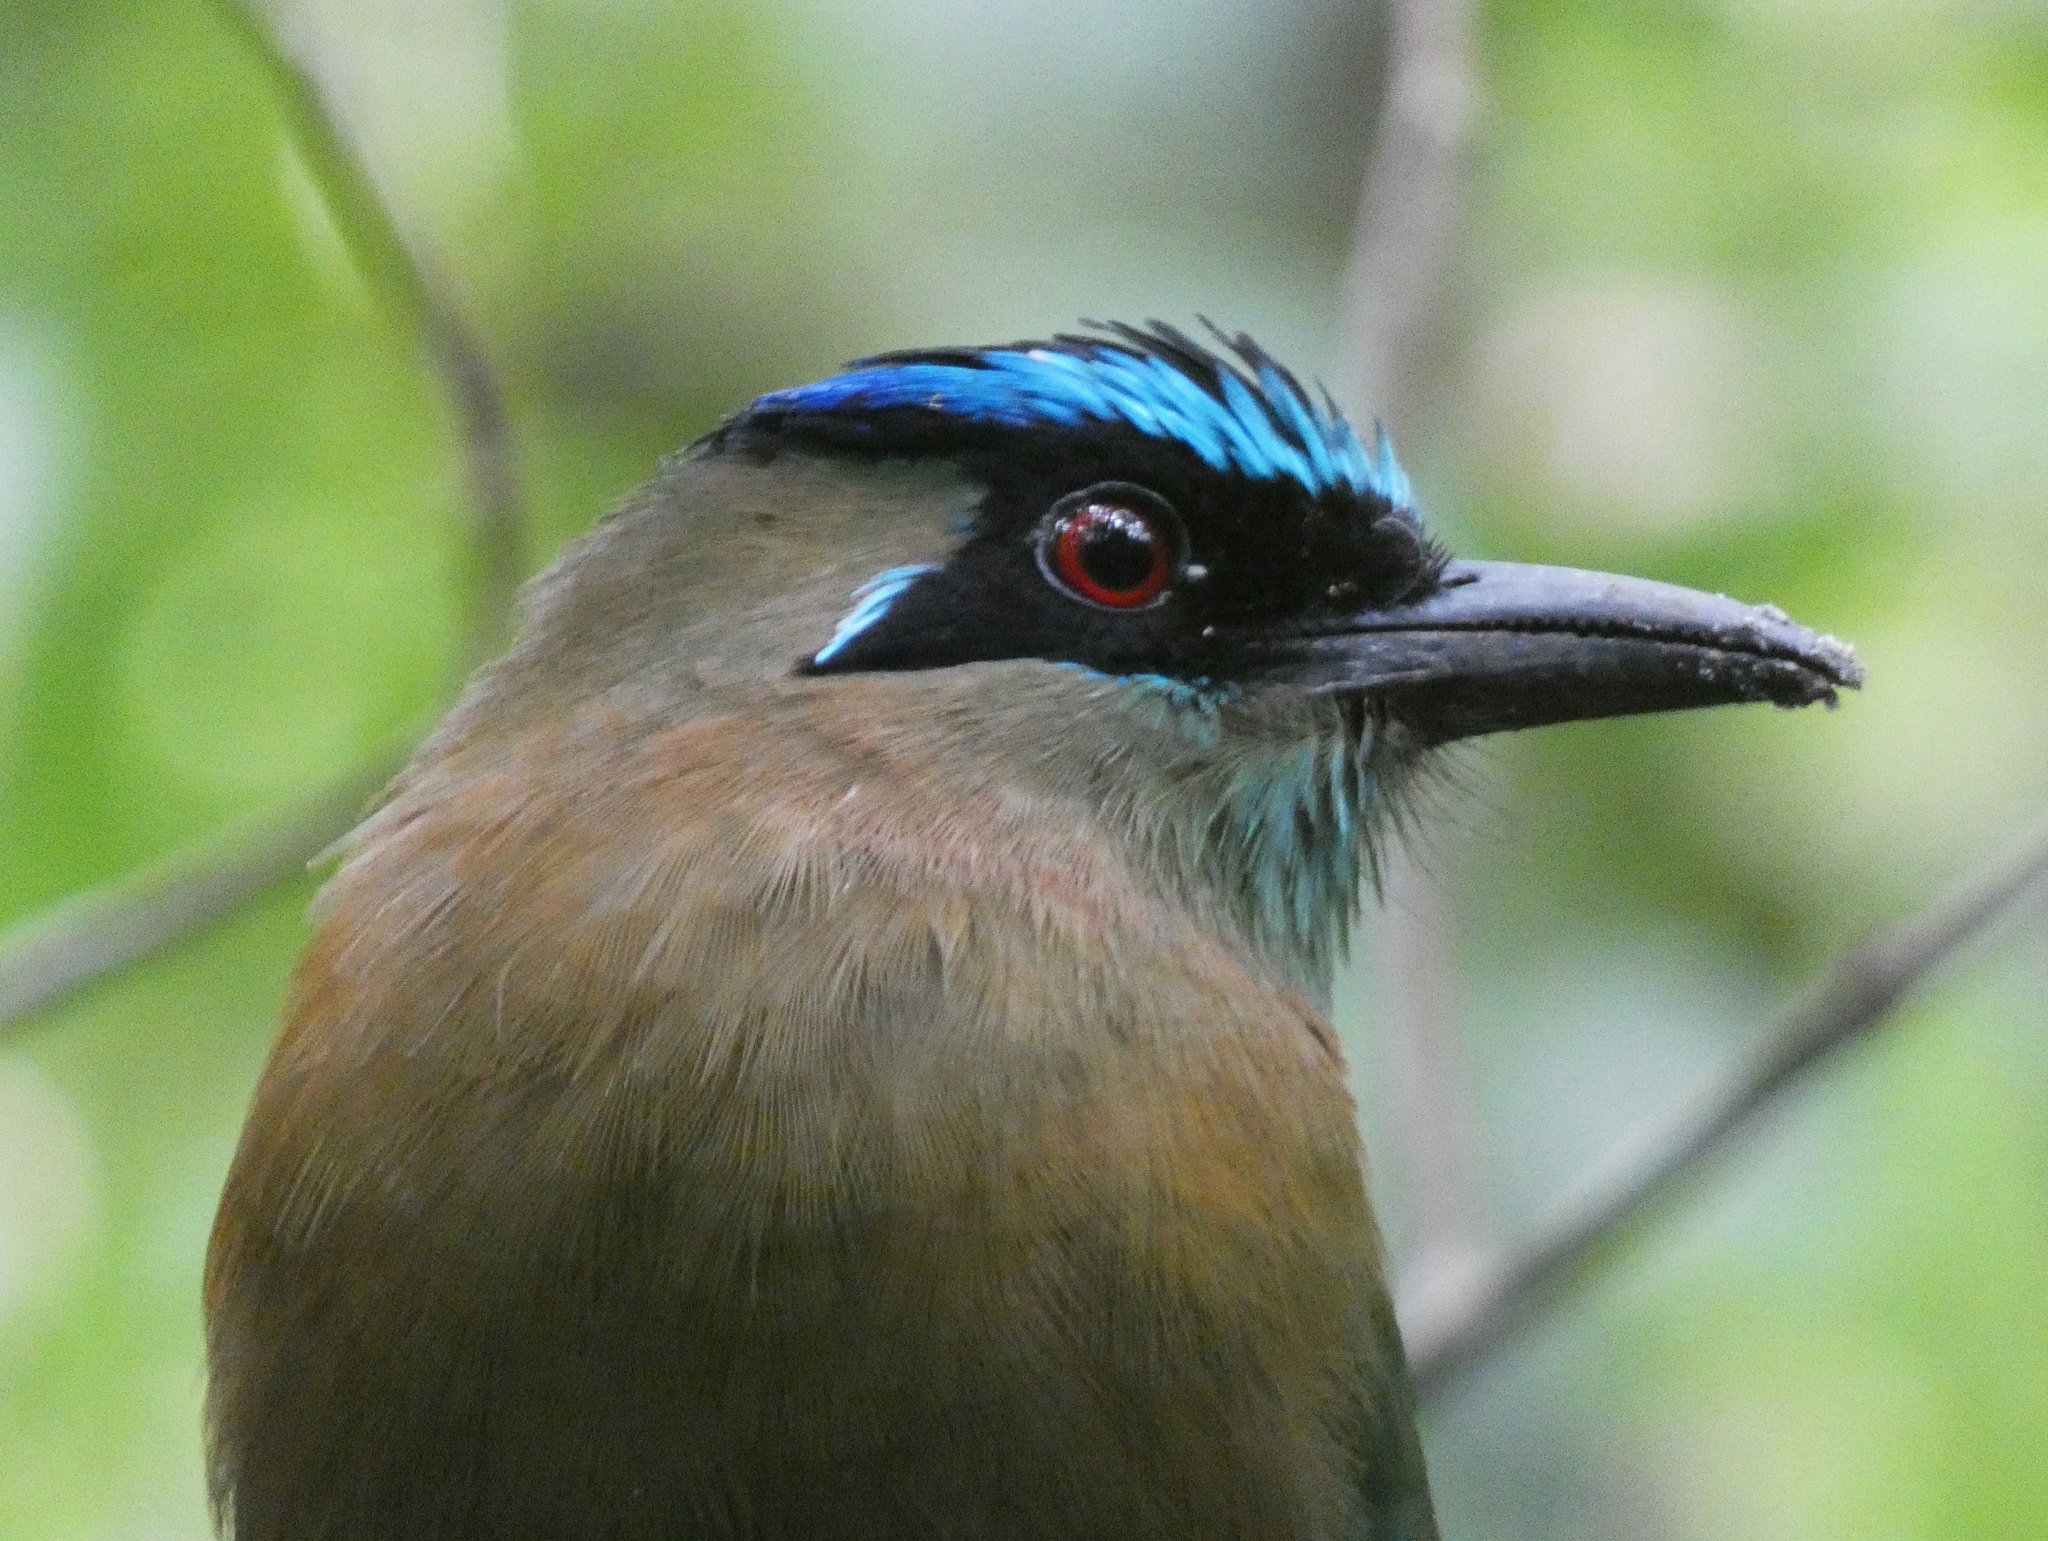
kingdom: Animalia
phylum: Chordata
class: Aves
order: Coraciiformes
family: Momotidae
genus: Momotus
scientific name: Momotus lessonii
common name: Lesson's motmot
